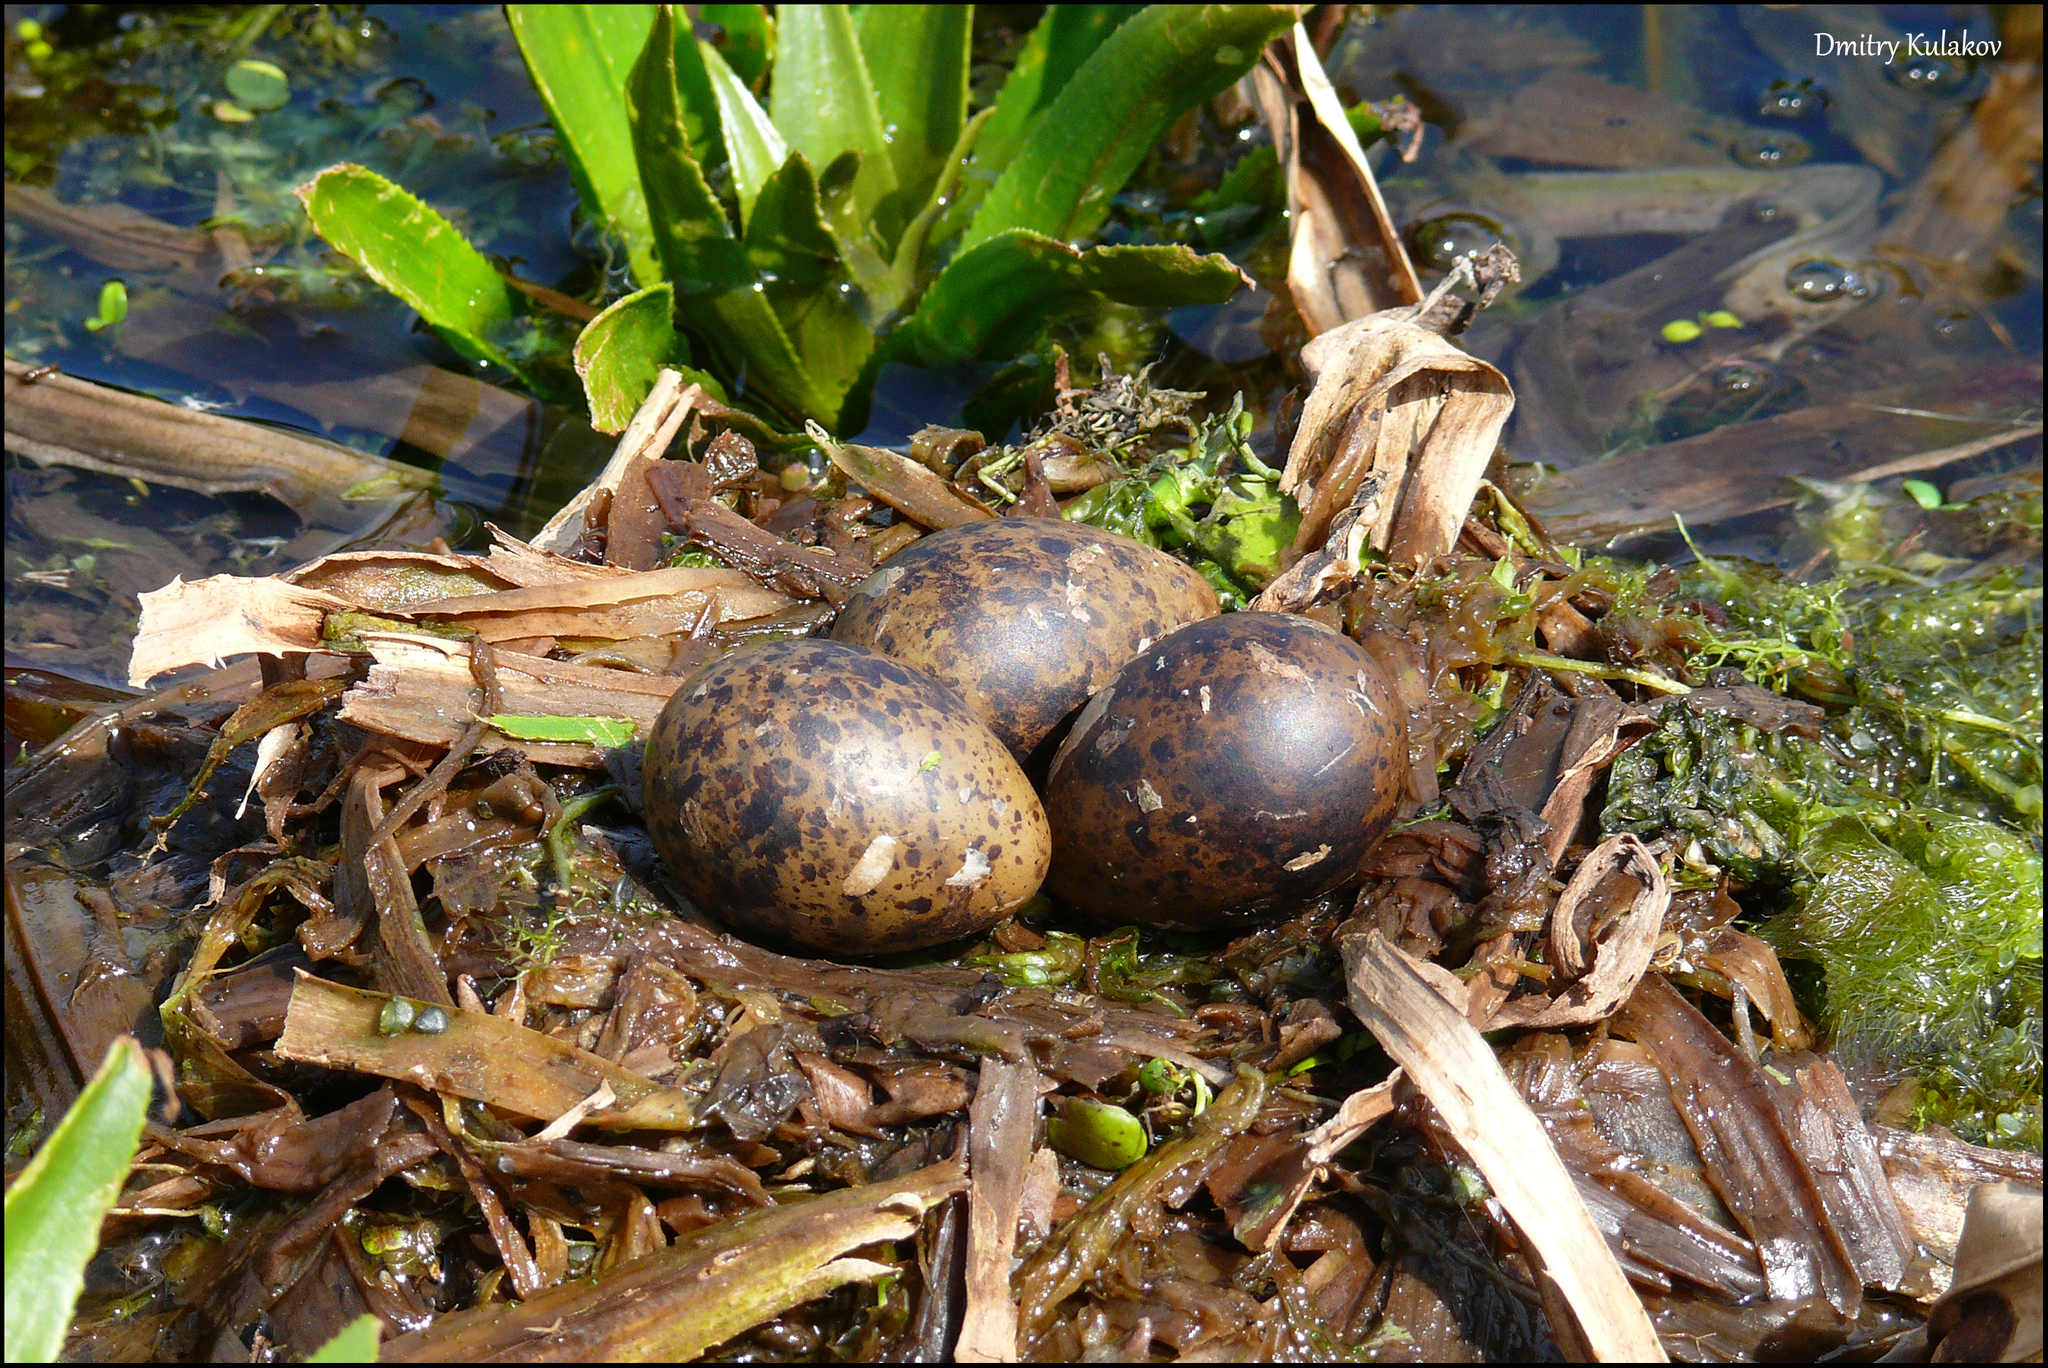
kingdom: Animalia
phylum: Chordata
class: Aves
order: Charadriiformes
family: Laridae
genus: Chlidonias
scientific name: Chlidonias leucopterus
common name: White-winged tern
